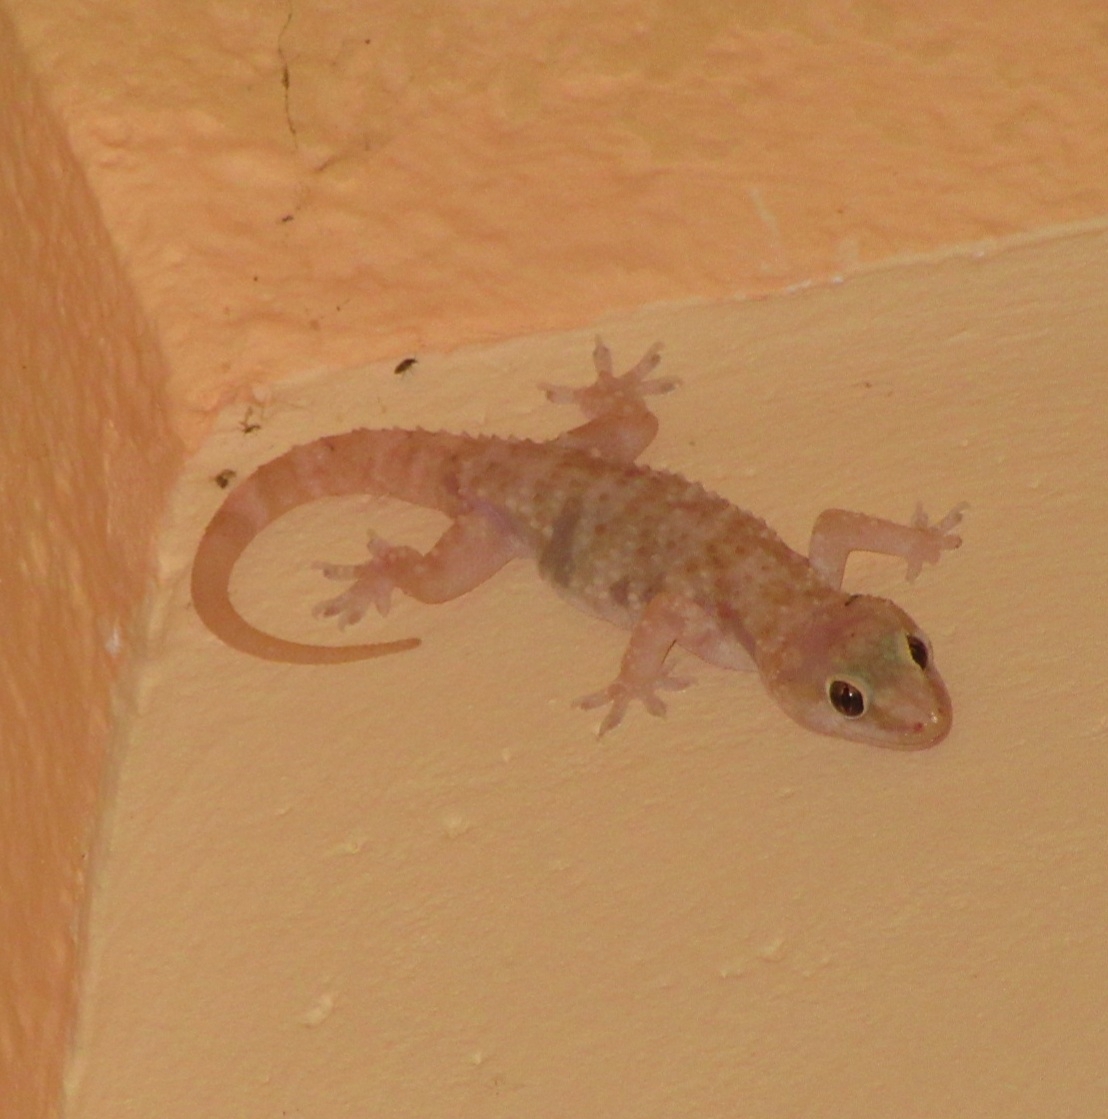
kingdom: Animalia
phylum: Chordata
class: Squamata
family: Gekkonidae
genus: Hemidactylus
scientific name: Hemidactylus turcicus
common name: Turkish gecko
